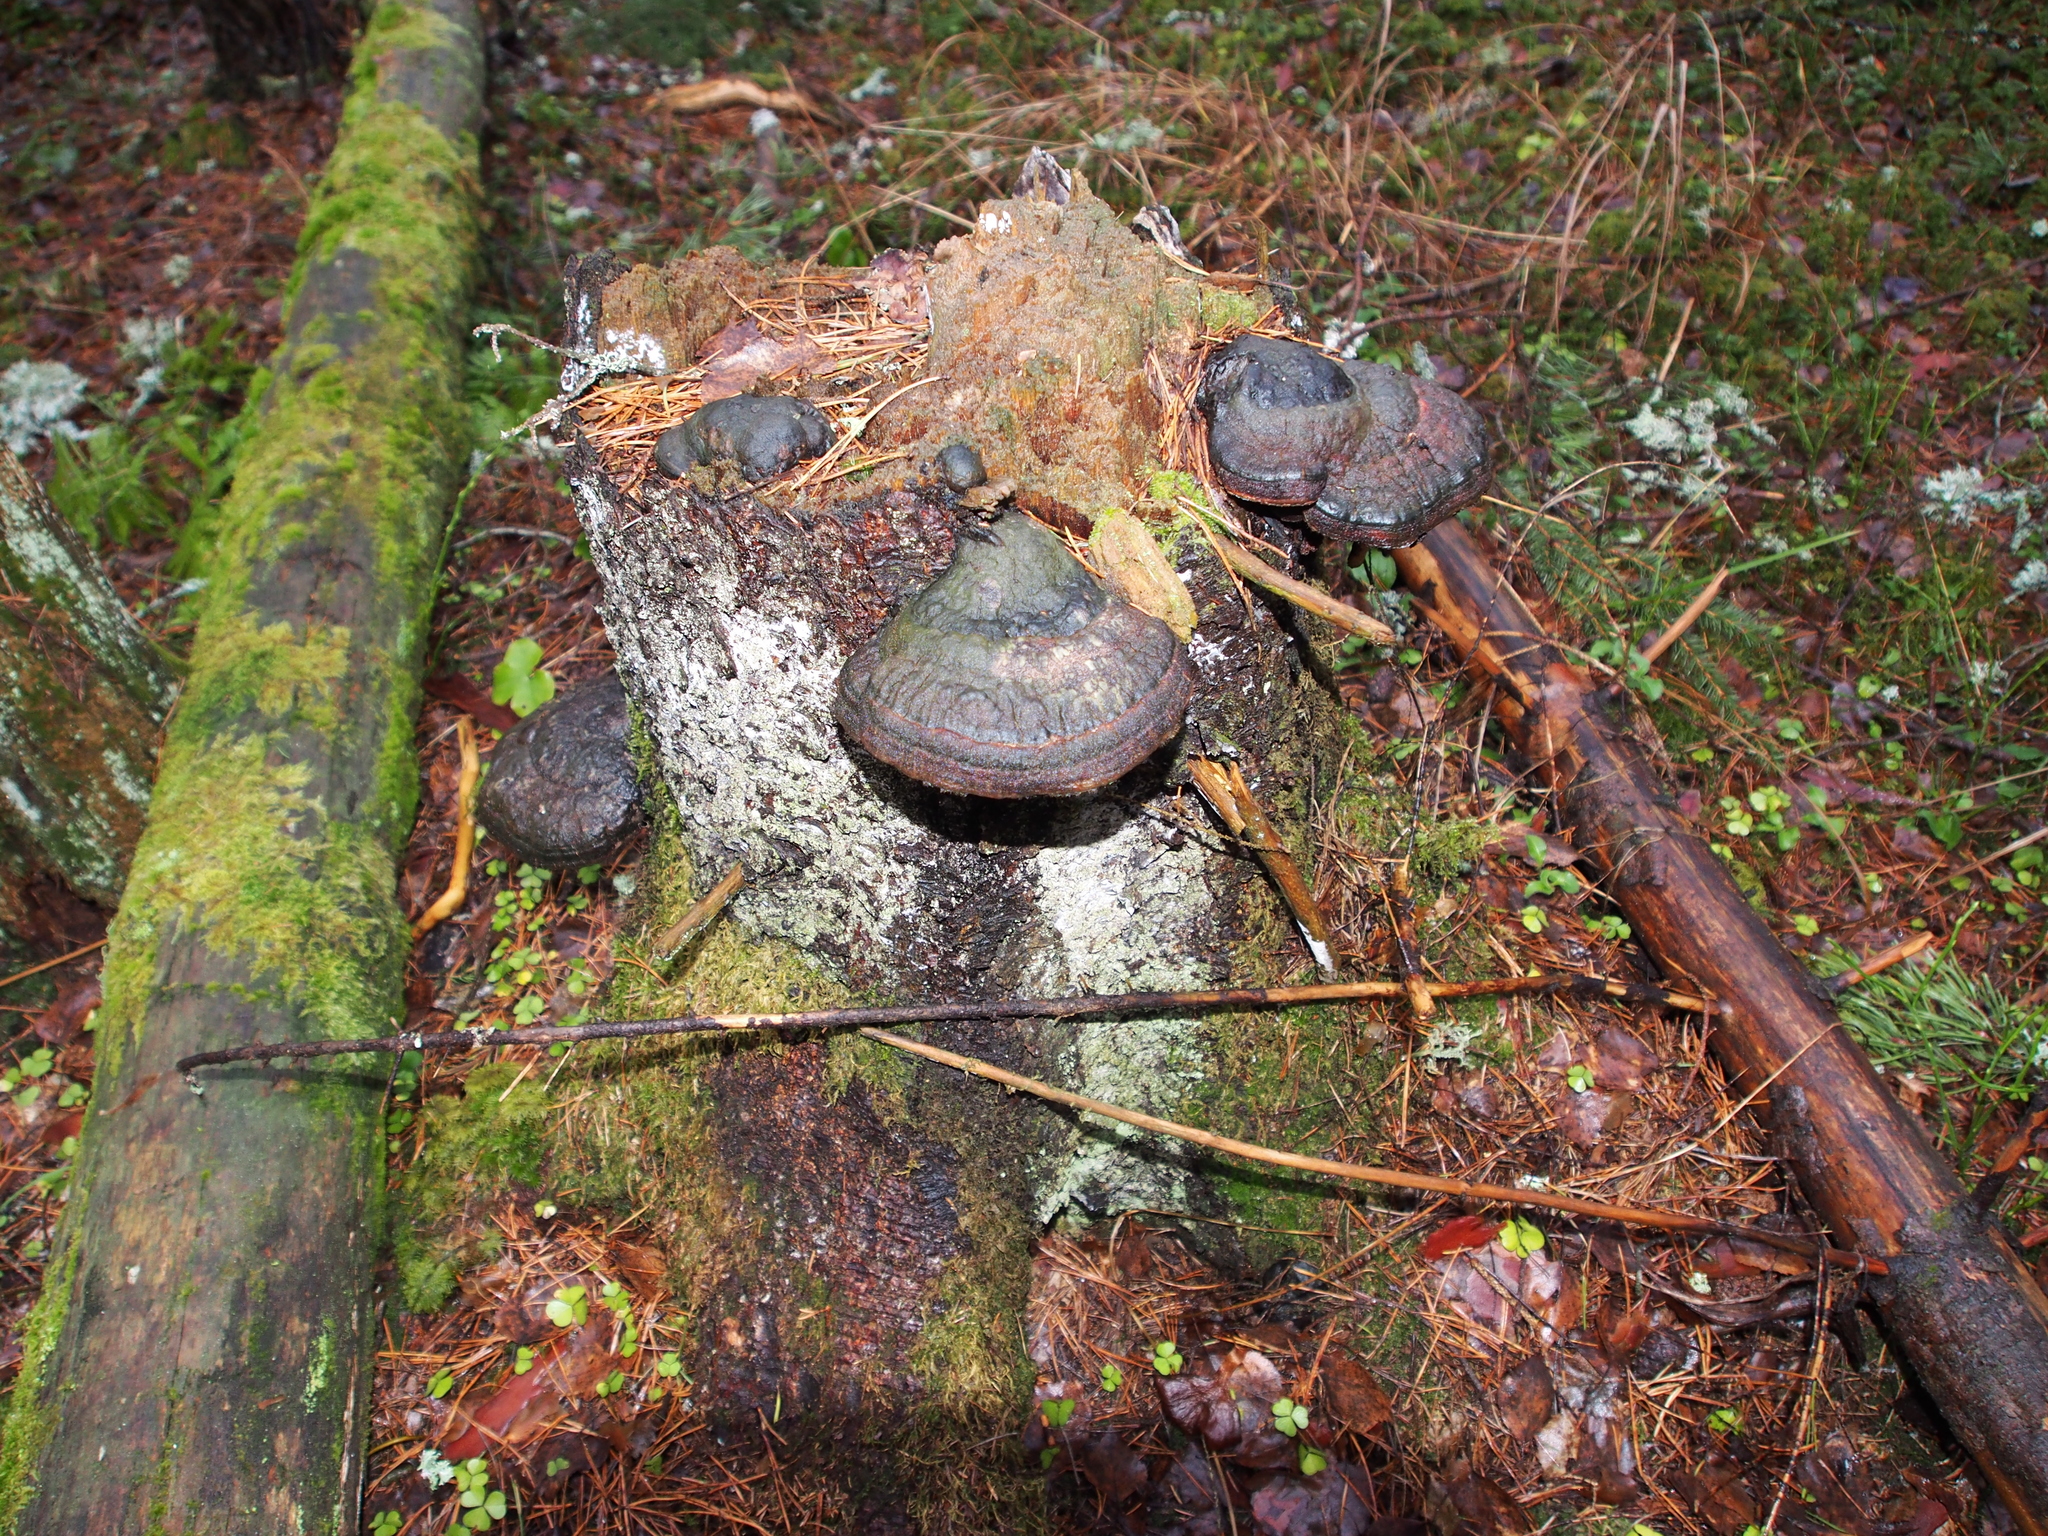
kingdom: Fungi
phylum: Basidiomycota
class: Agaricomycetes
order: Polyporales
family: Fomitopsidaceae
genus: Fomitopsis
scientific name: Fomitopsis pinicola
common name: Red-belted bracket
